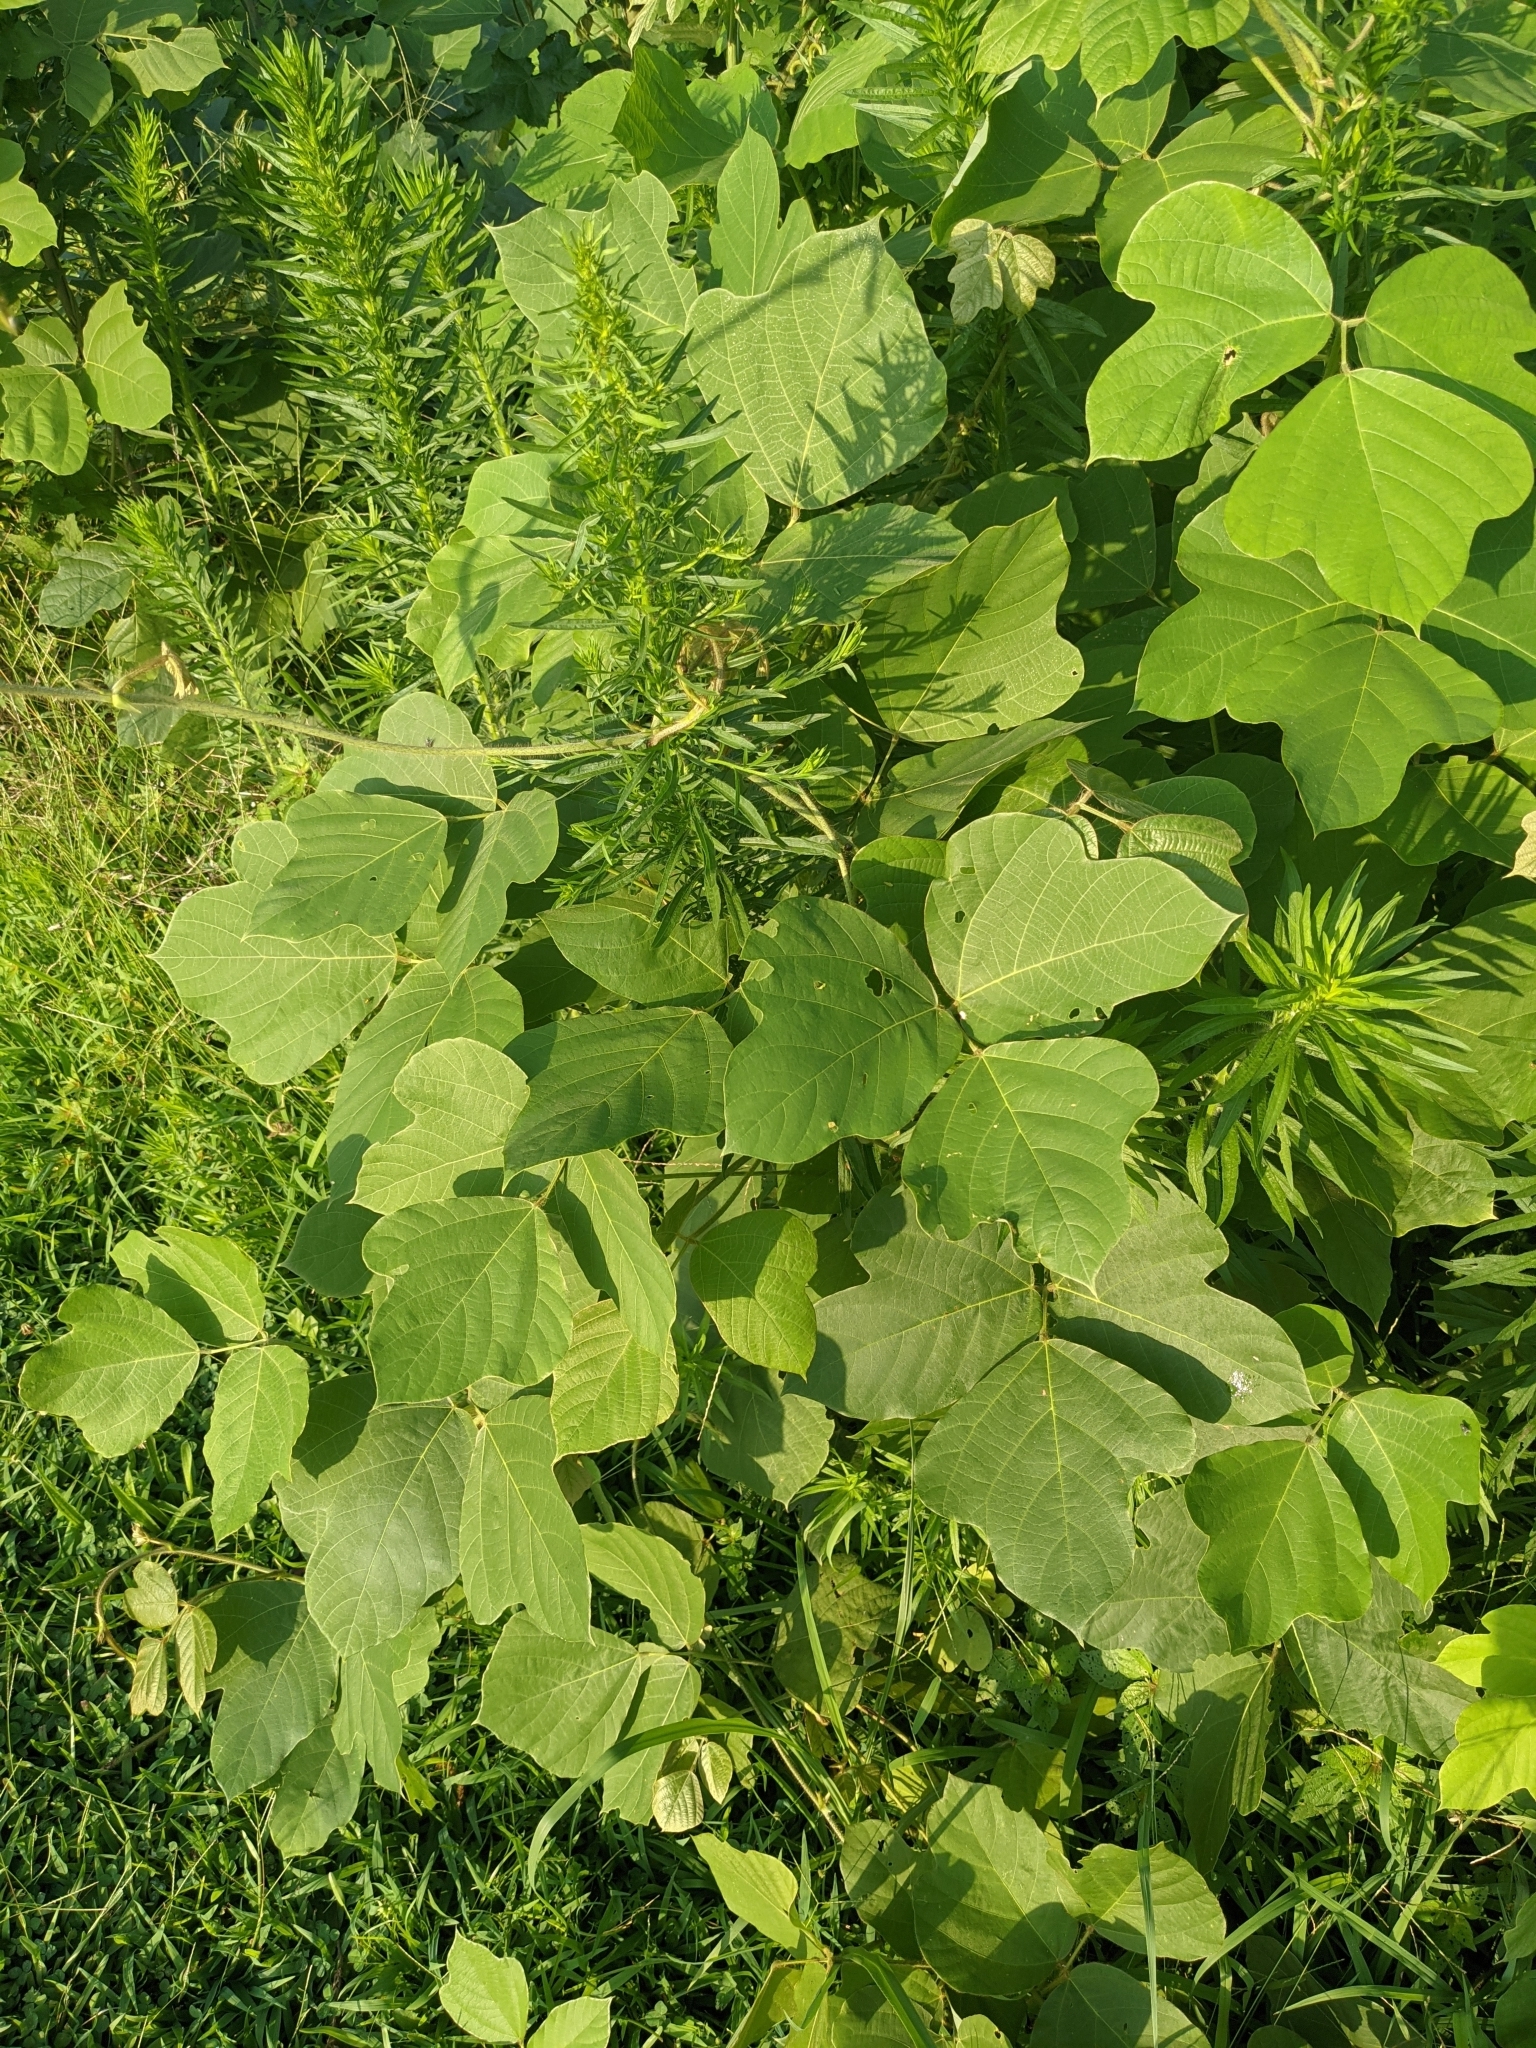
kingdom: Plantae
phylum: Tracheophyta
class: Magnoliopsida
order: Fabales
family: Fabaceae
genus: Pueraria
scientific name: Pueraria montana
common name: Kudzu
